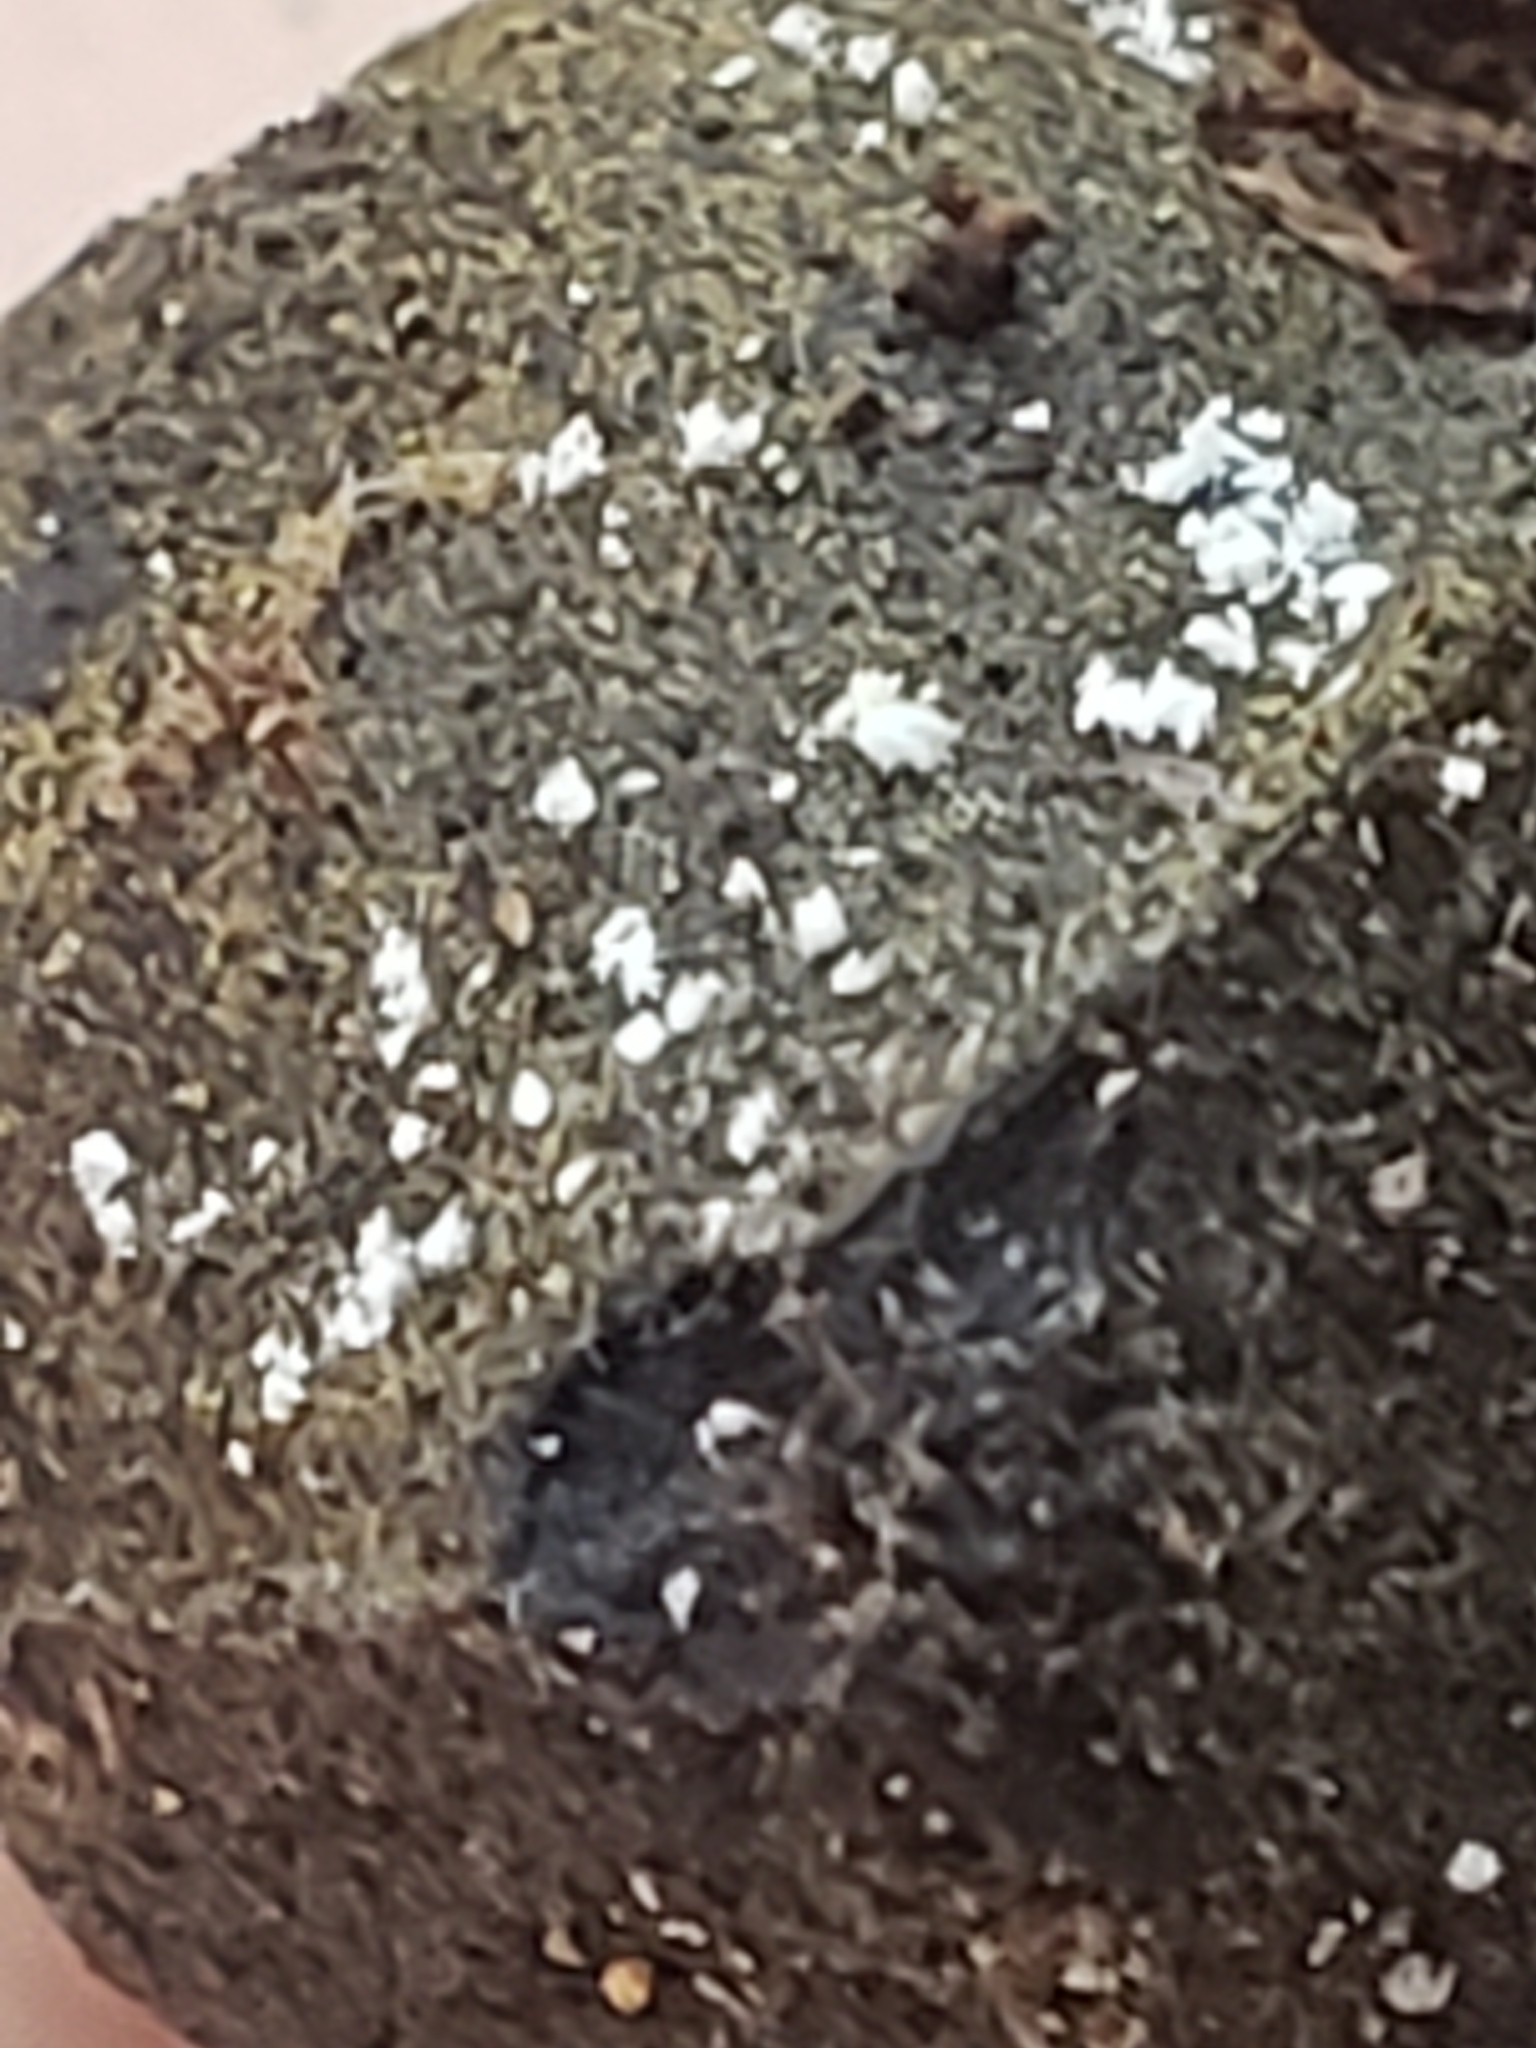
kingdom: Fungi
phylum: Ascomycota
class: Sordariomycetes
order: Hypocreales
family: Bionectriaceae
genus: Clonostachys
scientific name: Clonostachys compactiuscula
